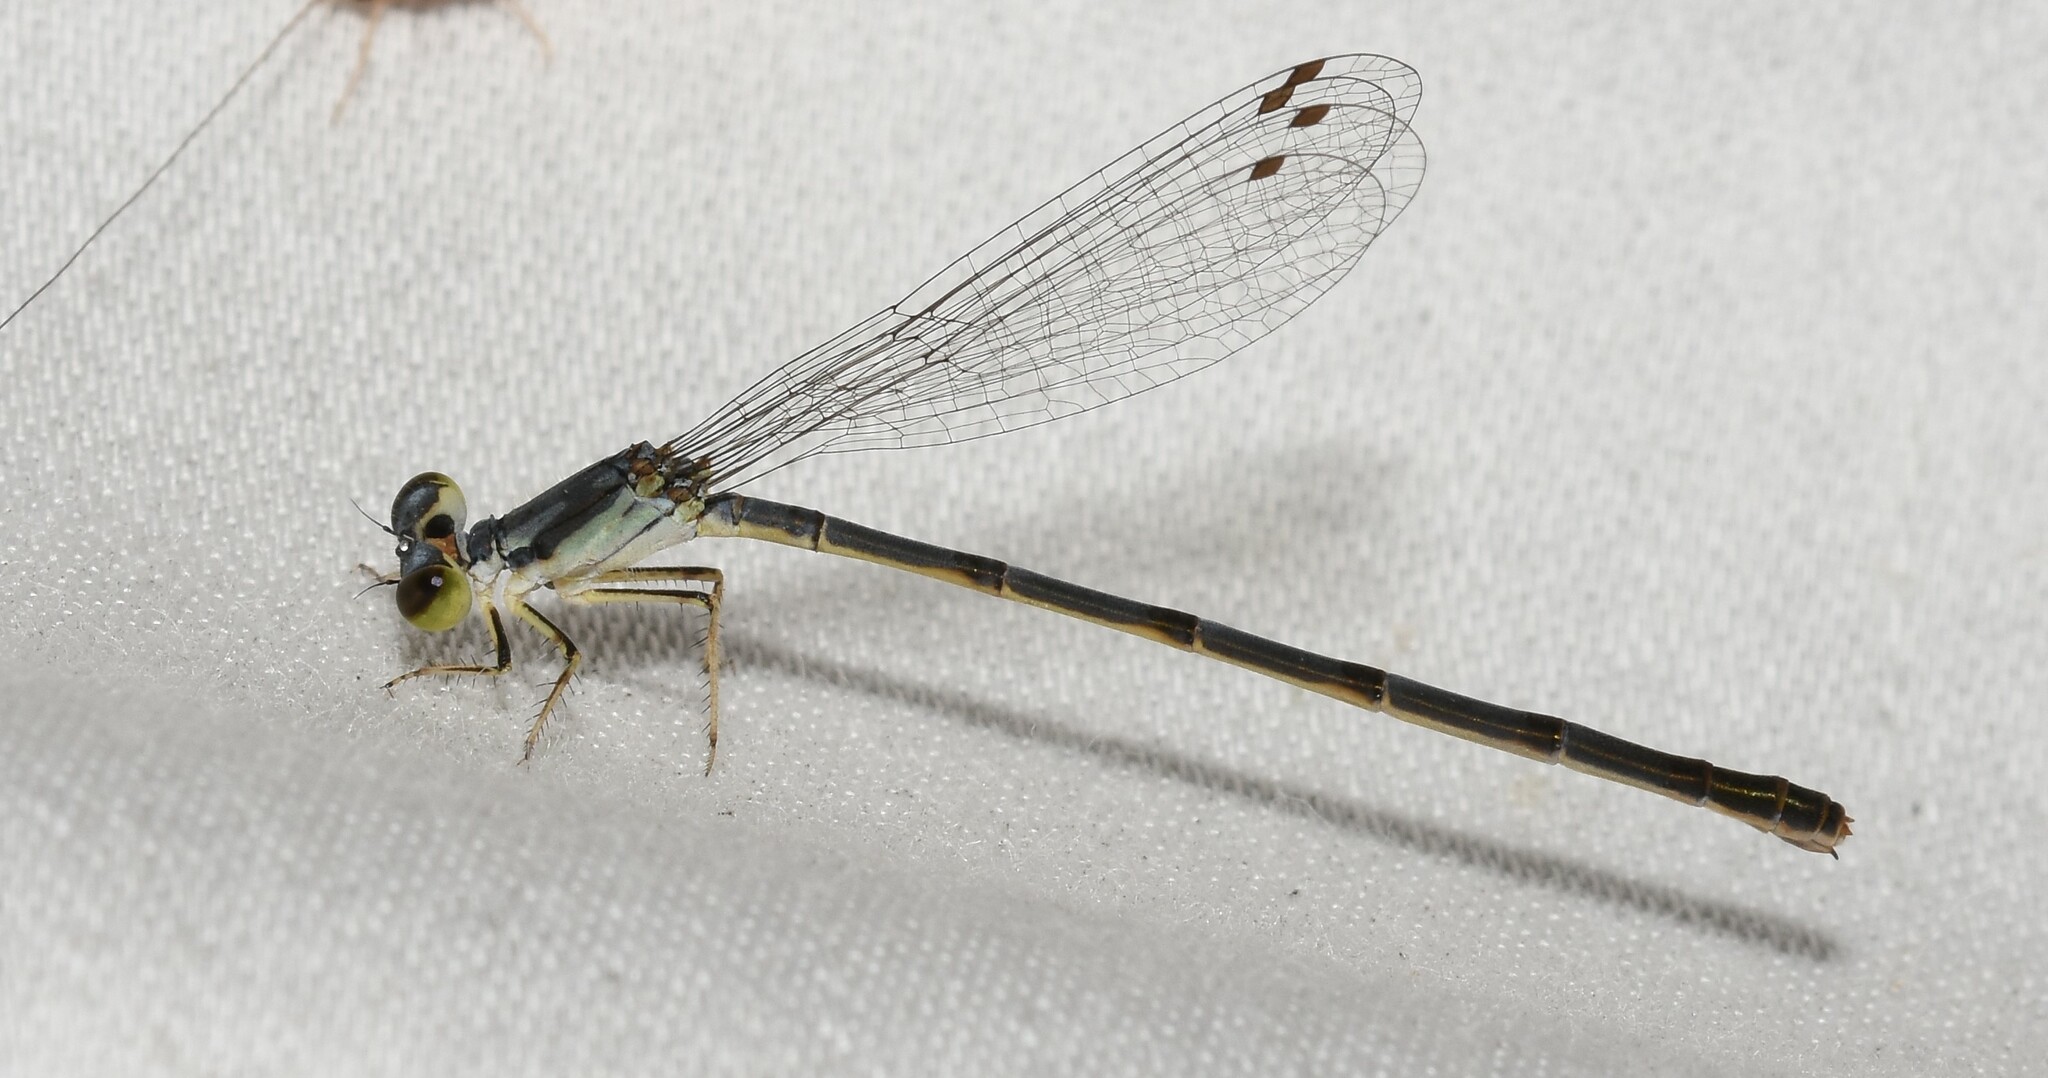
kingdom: Animalia
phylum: Arthropoda
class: Insecta
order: Odonata
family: Coenagrionidae
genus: Ischnura
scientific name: Ischnura posita
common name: Fragile forktail
